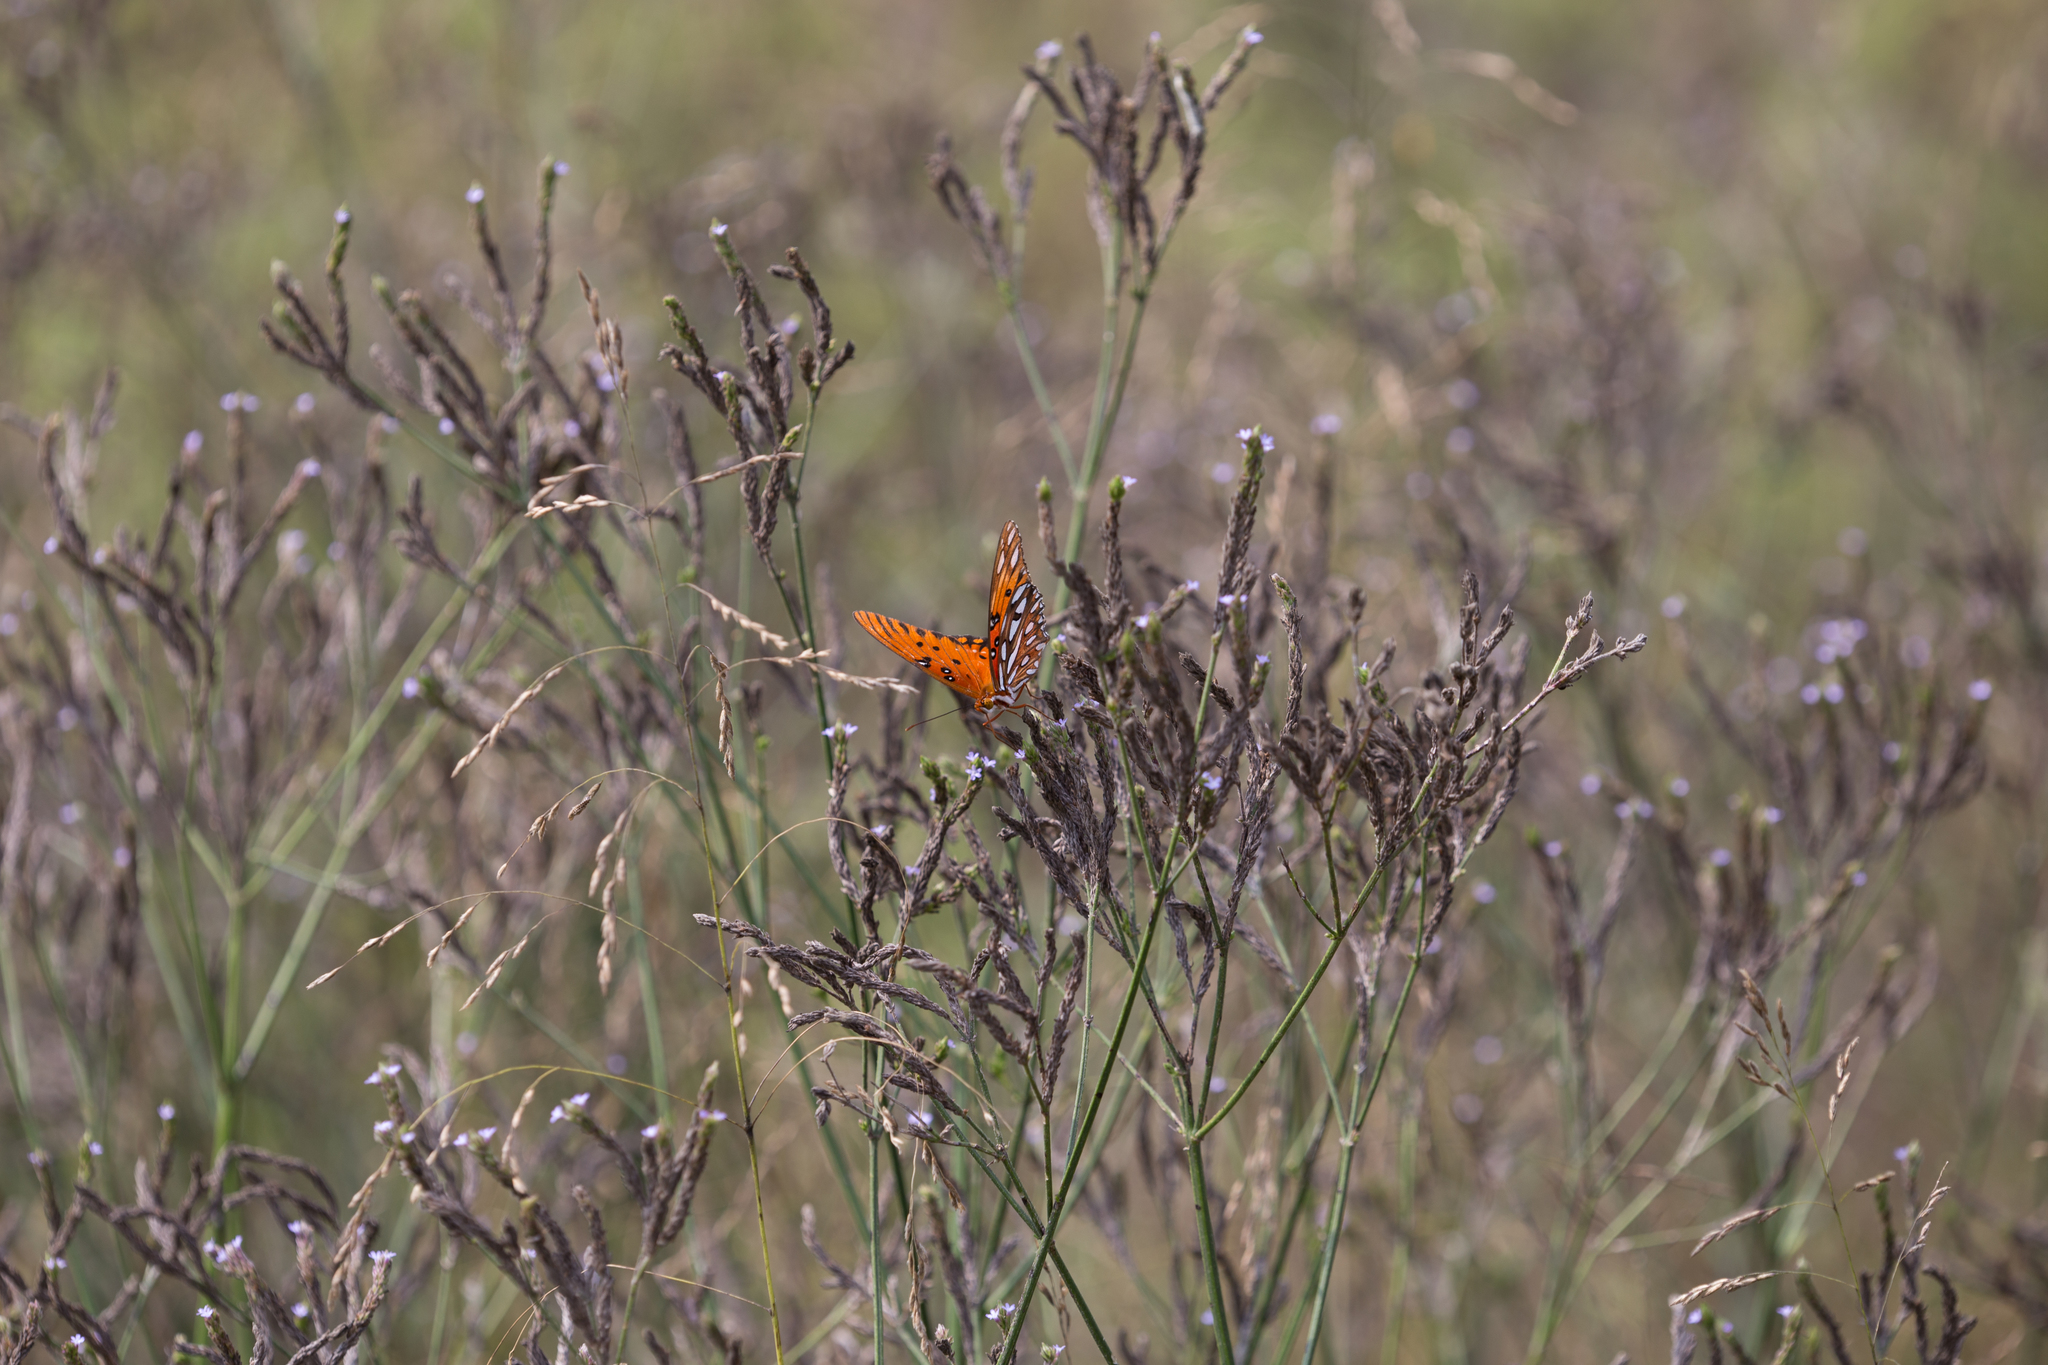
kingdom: Animalia
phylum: Arthropoda
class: Insecta
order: Lepidoptera
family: Nymphalidae
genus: Dione
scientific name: Dione vanillae
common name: Gulf fritillary
